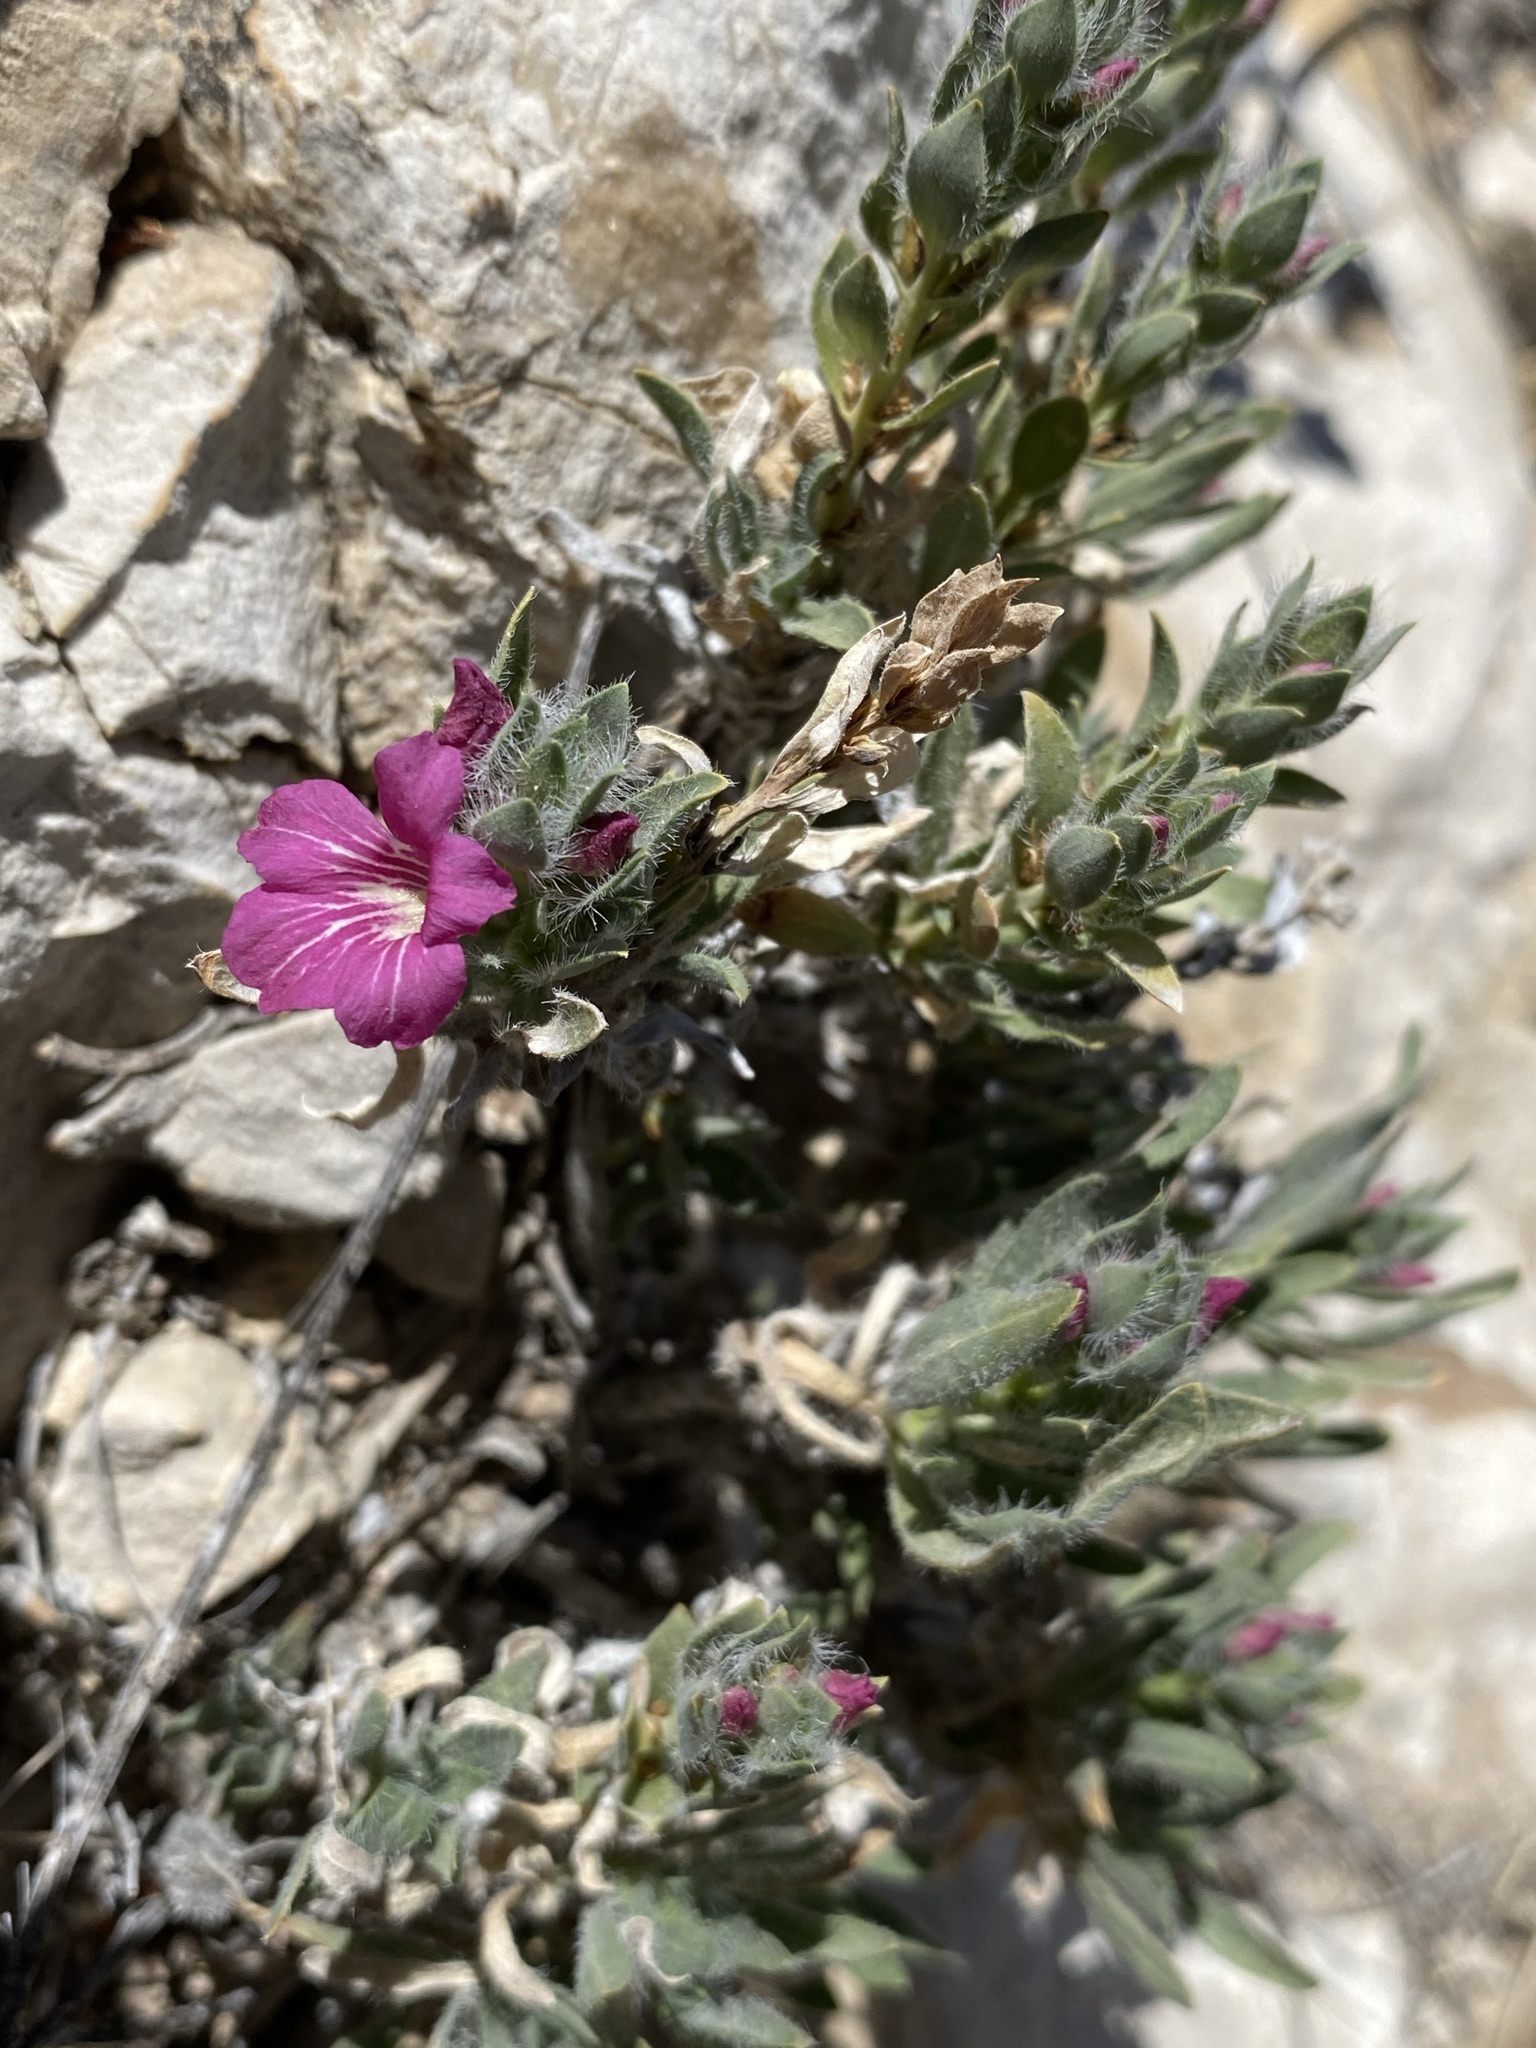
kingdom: Plantae
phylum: Tracheophyta
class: Magnoliopsida
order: Lamiales
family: Acanthaceae
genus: Stenandrium
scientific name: Stenandrium barbatum
